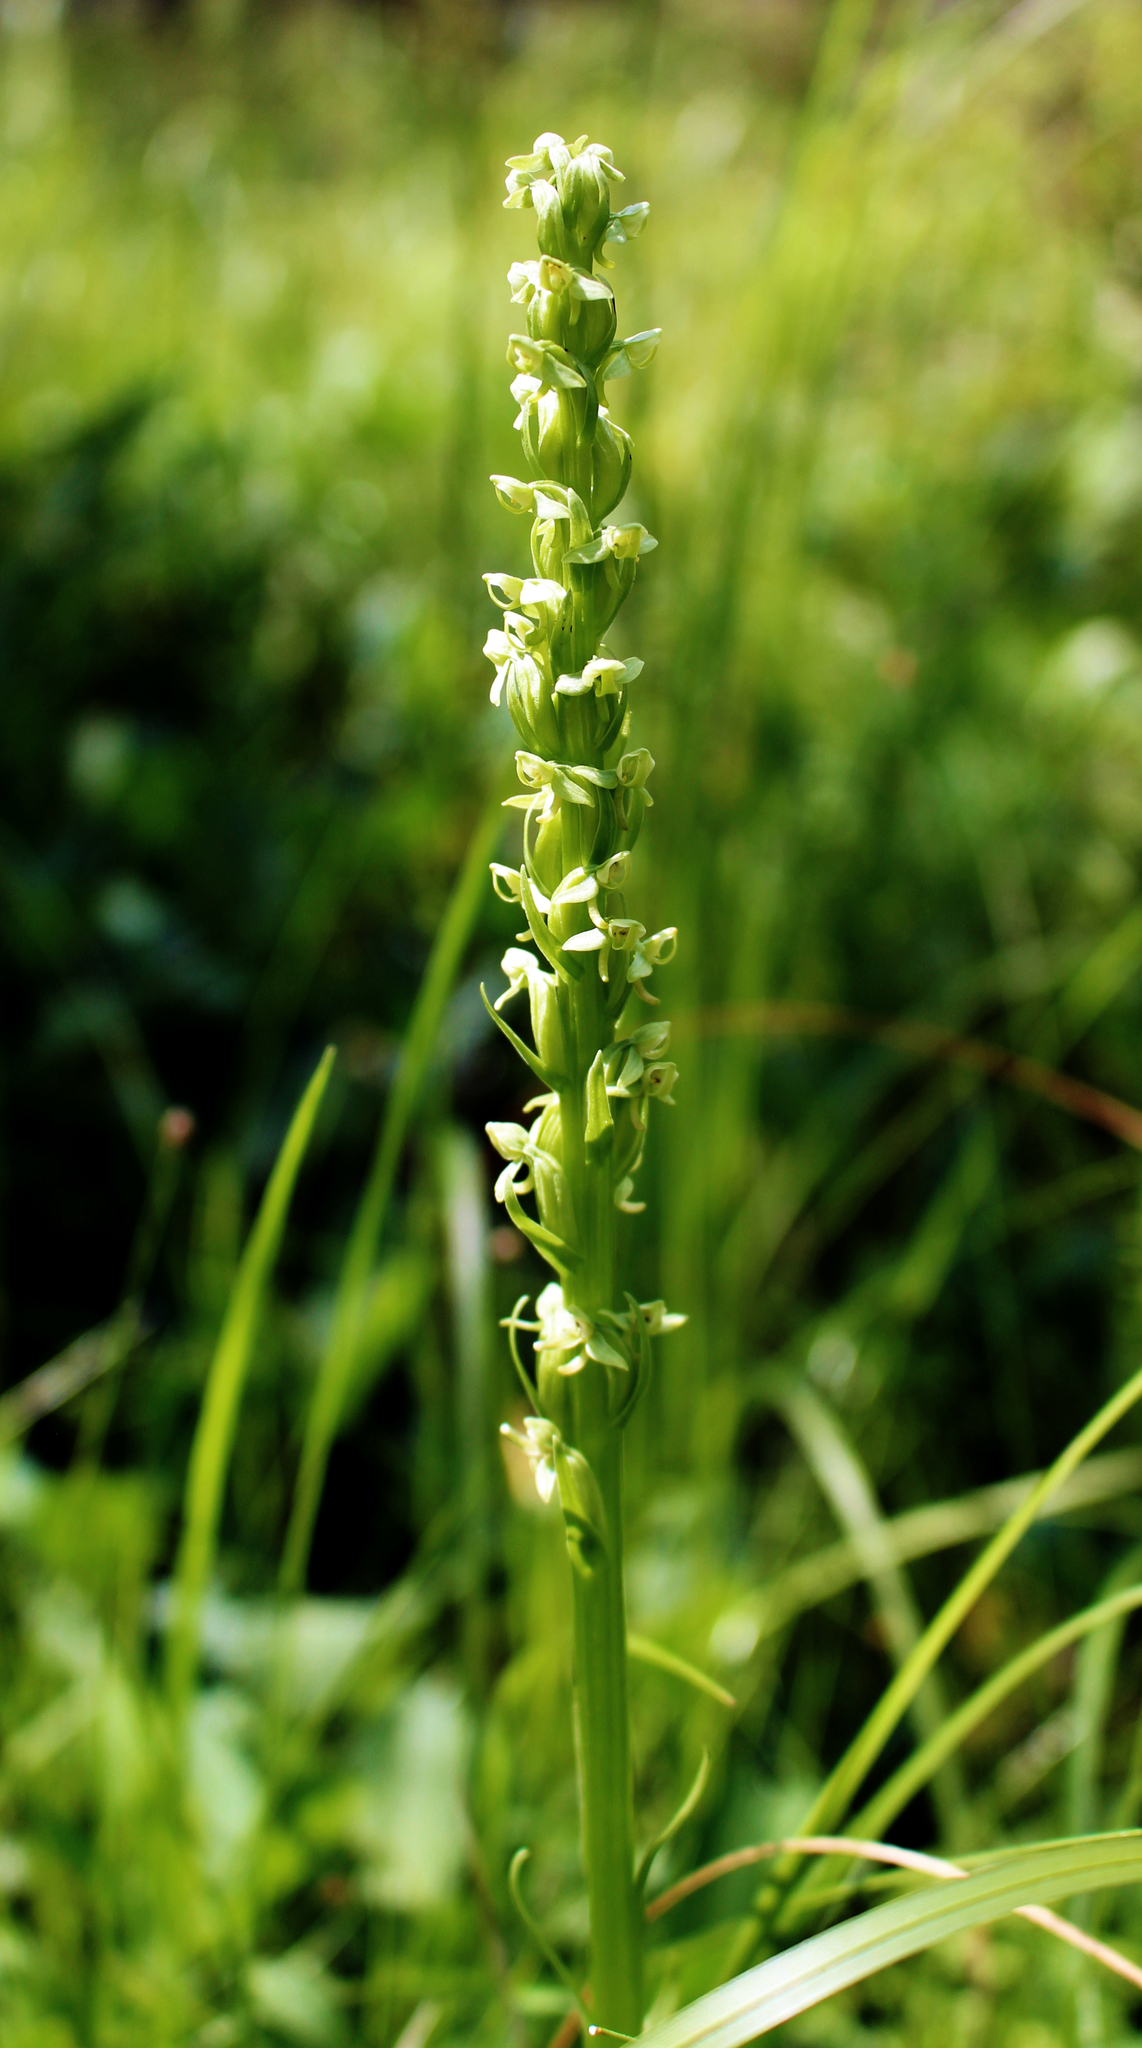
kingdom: Plantae
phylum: Tracheophyta
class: Liliopsida
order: Asparagales
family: Orchidaceae
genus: Platanthera
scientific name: Platanthera huronensis
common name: Fragrant green orchid
